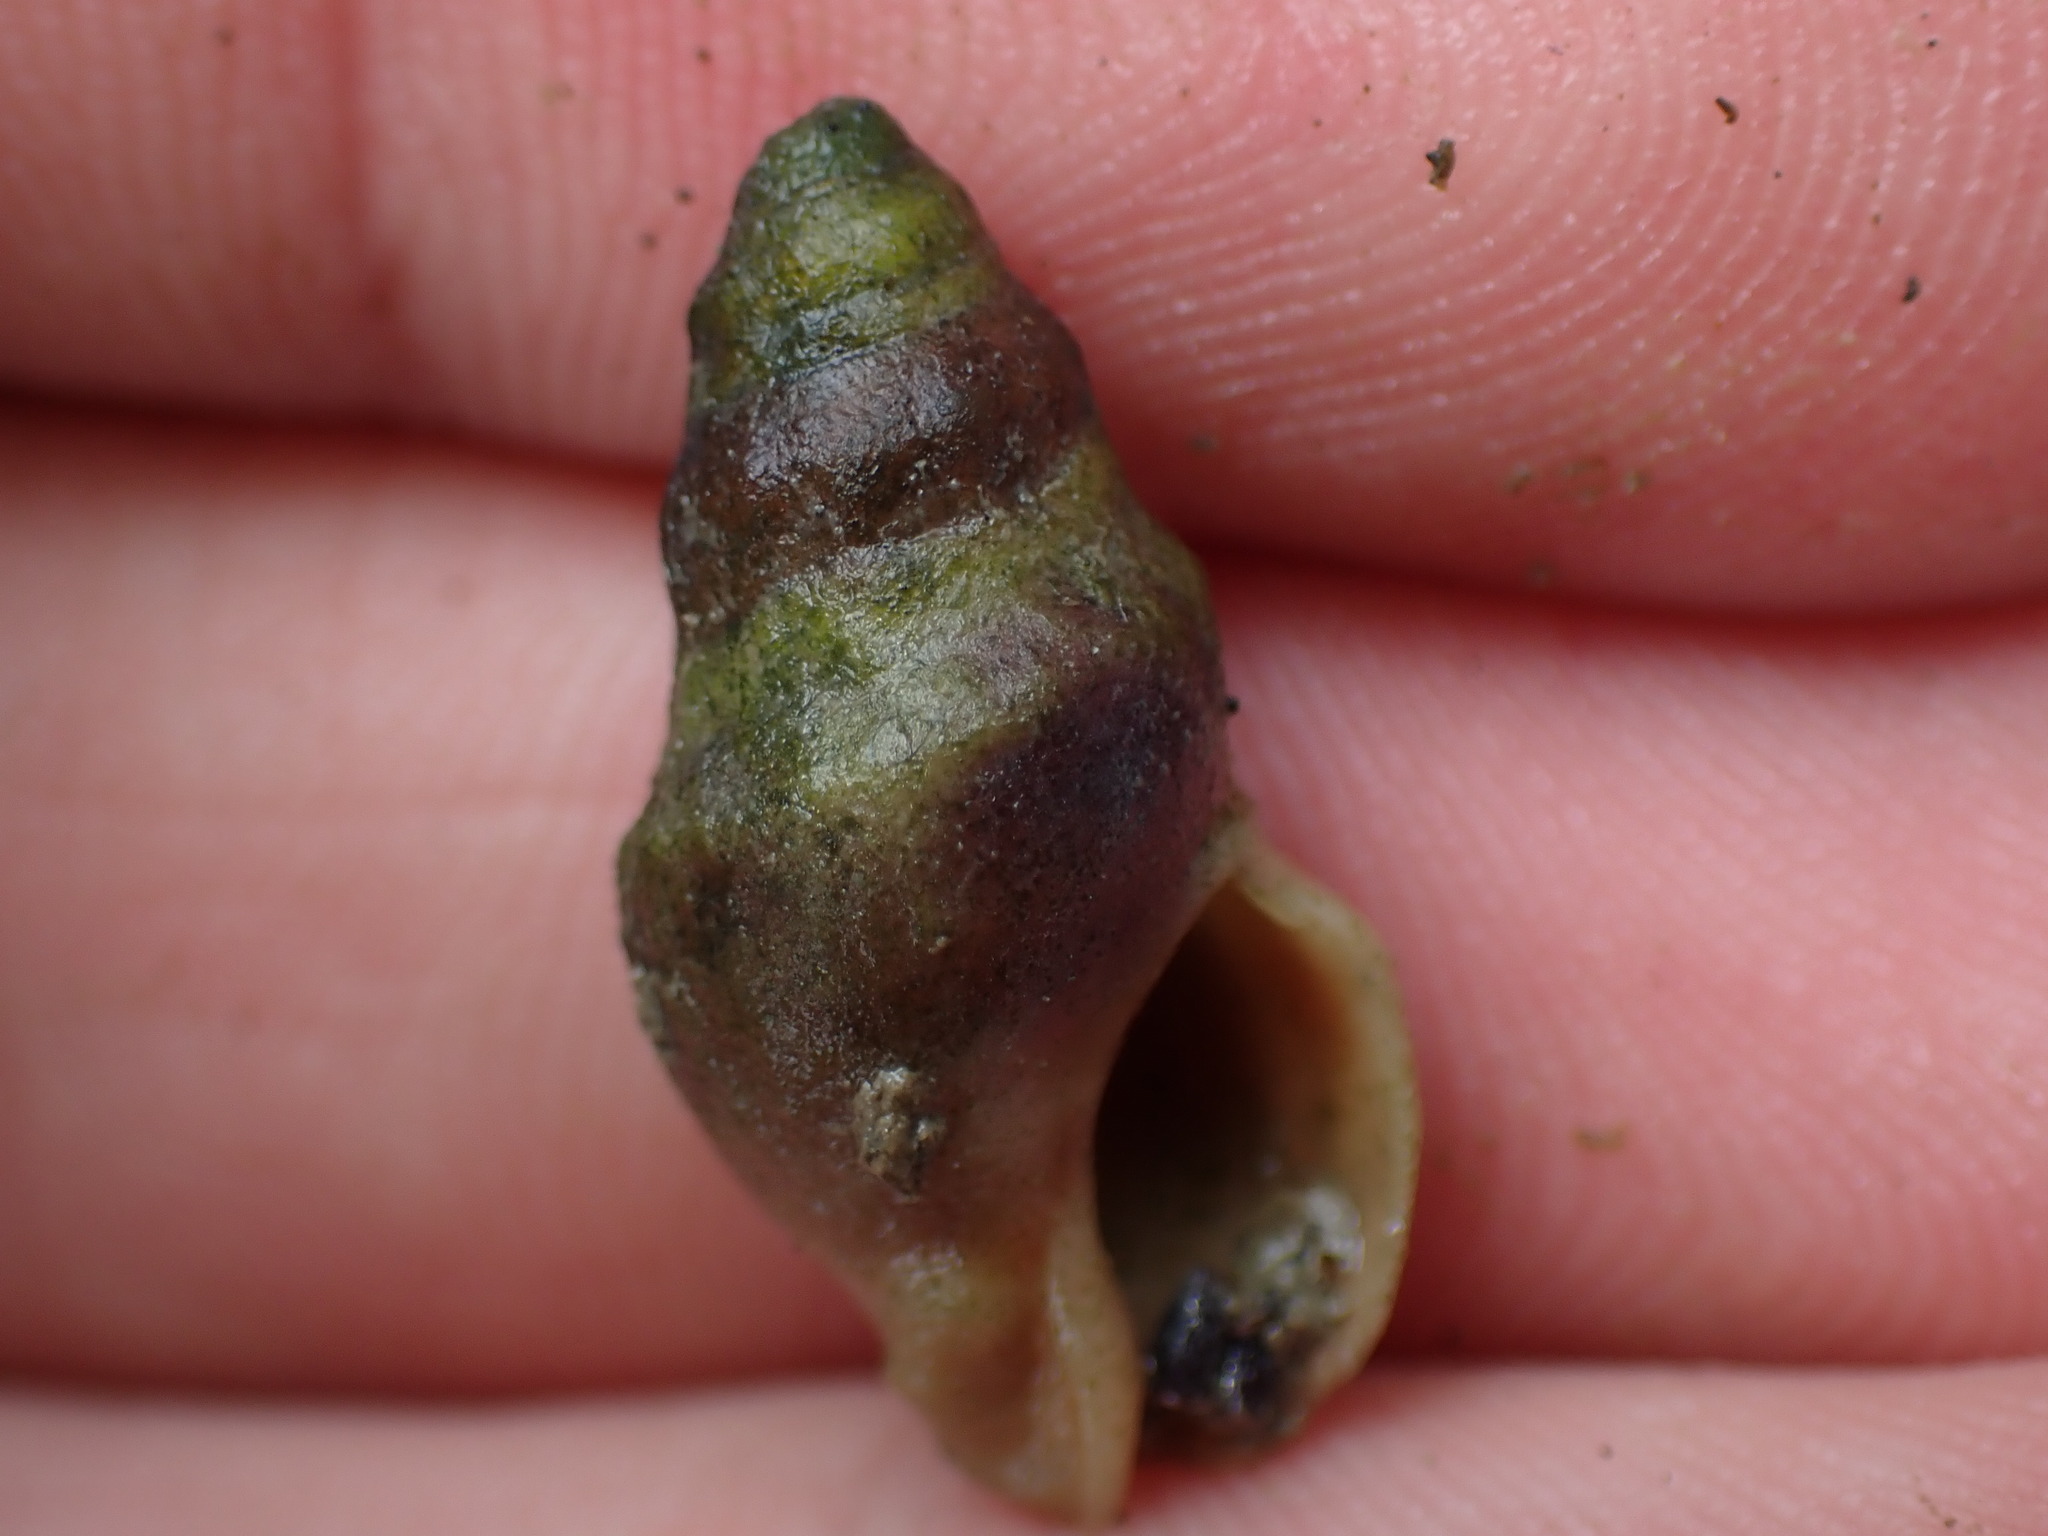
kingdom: Animalia
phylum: Mollusca
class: Gastropoda
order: Neogastropoda
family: Cominellidae
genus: Cominella
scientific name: Cominella glandiformis
